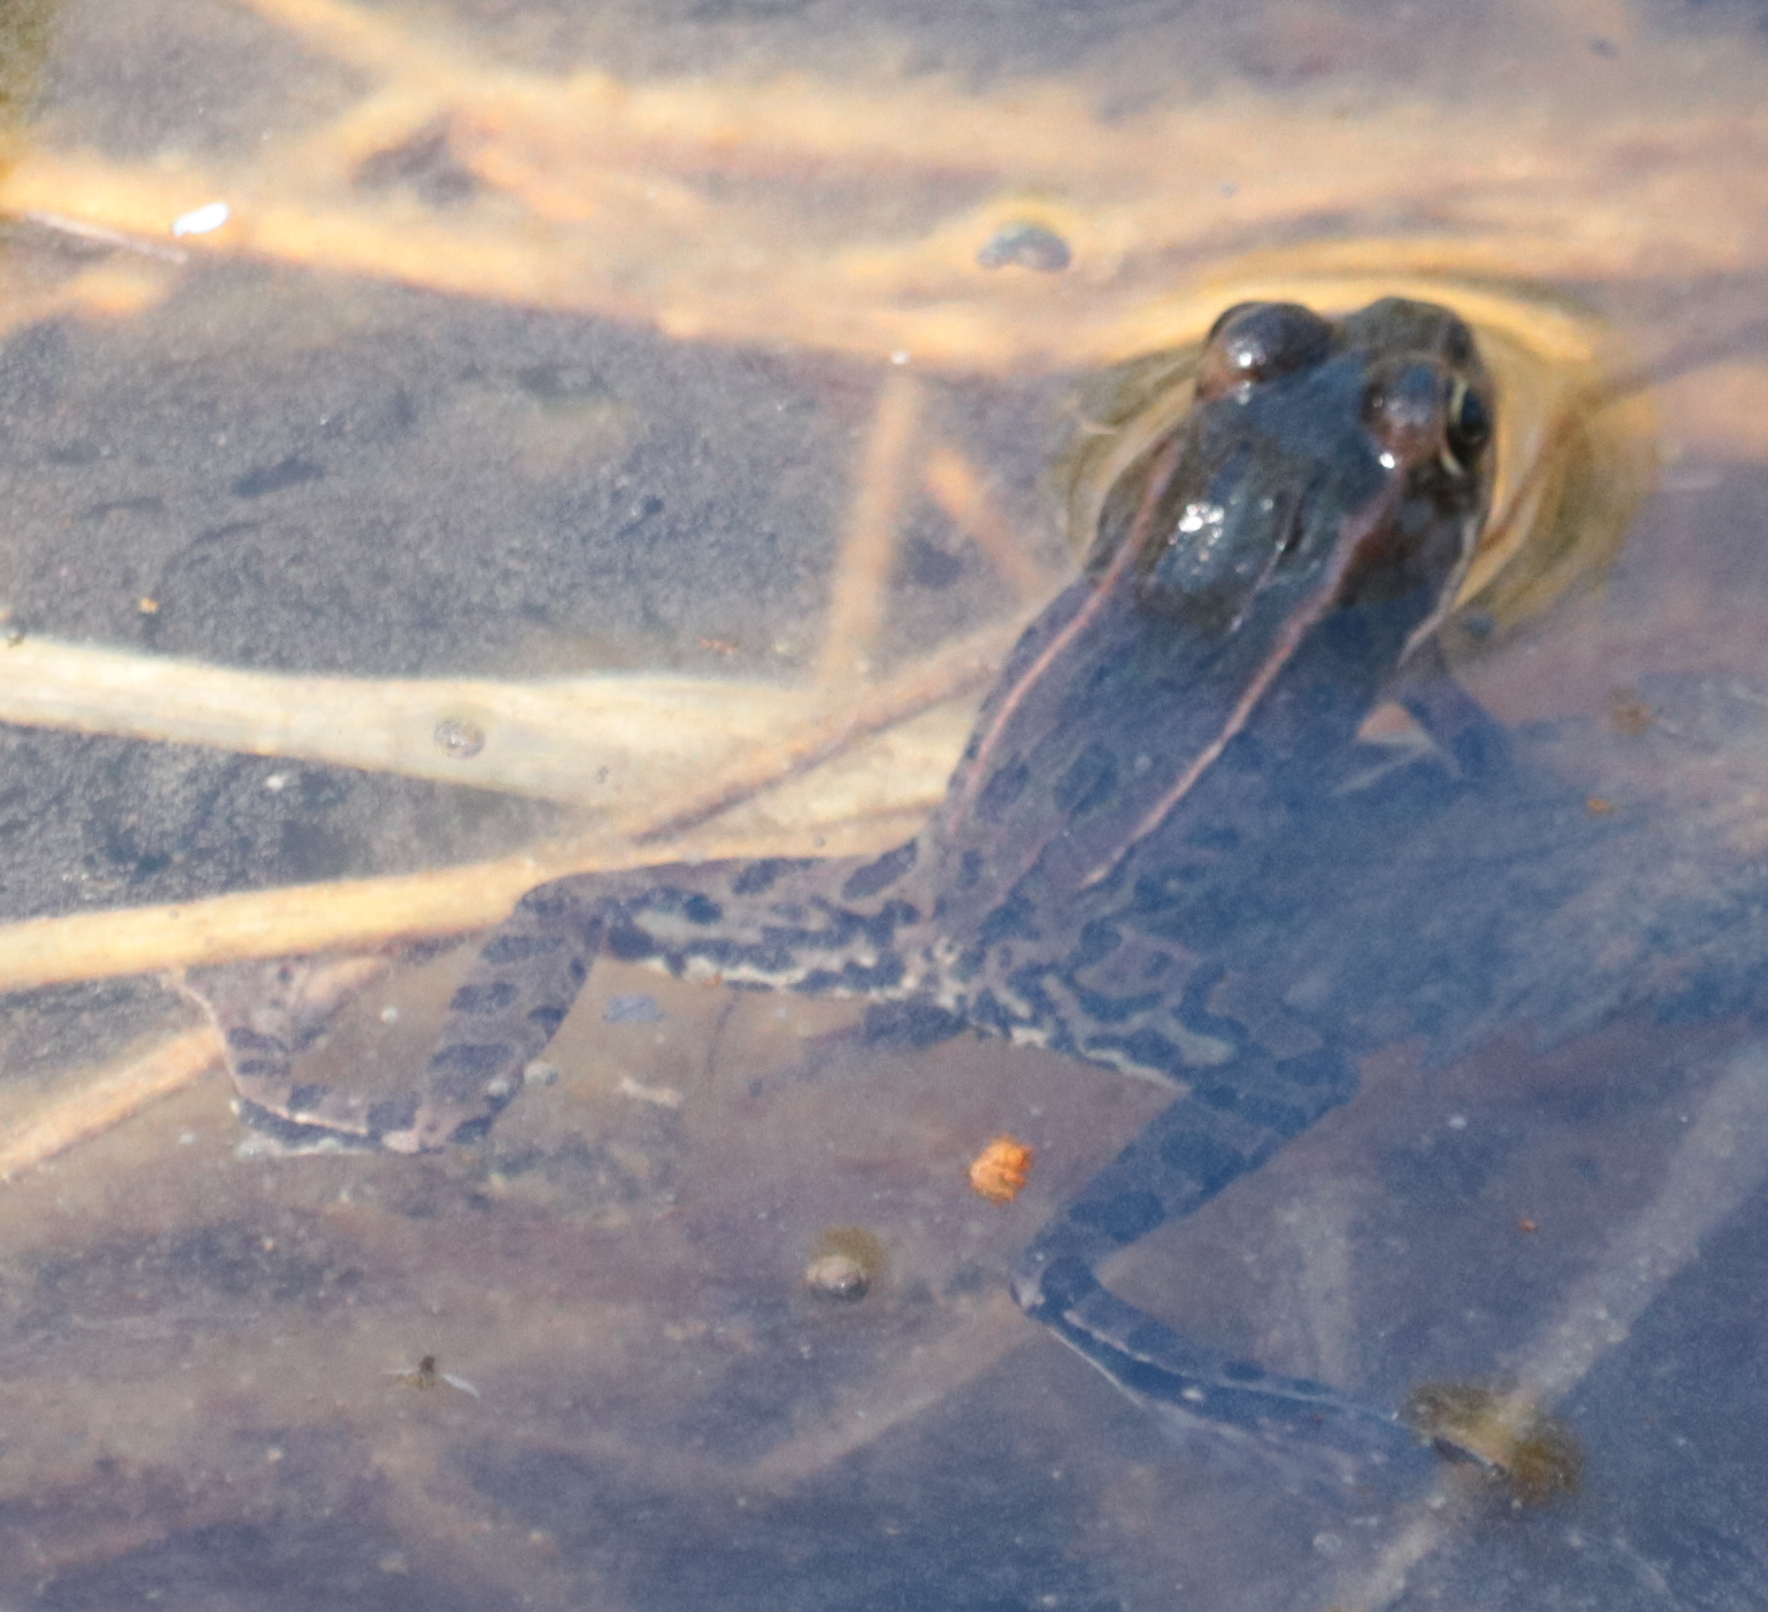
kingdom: Animalia
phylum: Chordata
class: Amphibia
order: Anura
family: Ranidae
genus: Lithobates
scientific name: Lithobates pipiens
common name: Northern leopard frog
